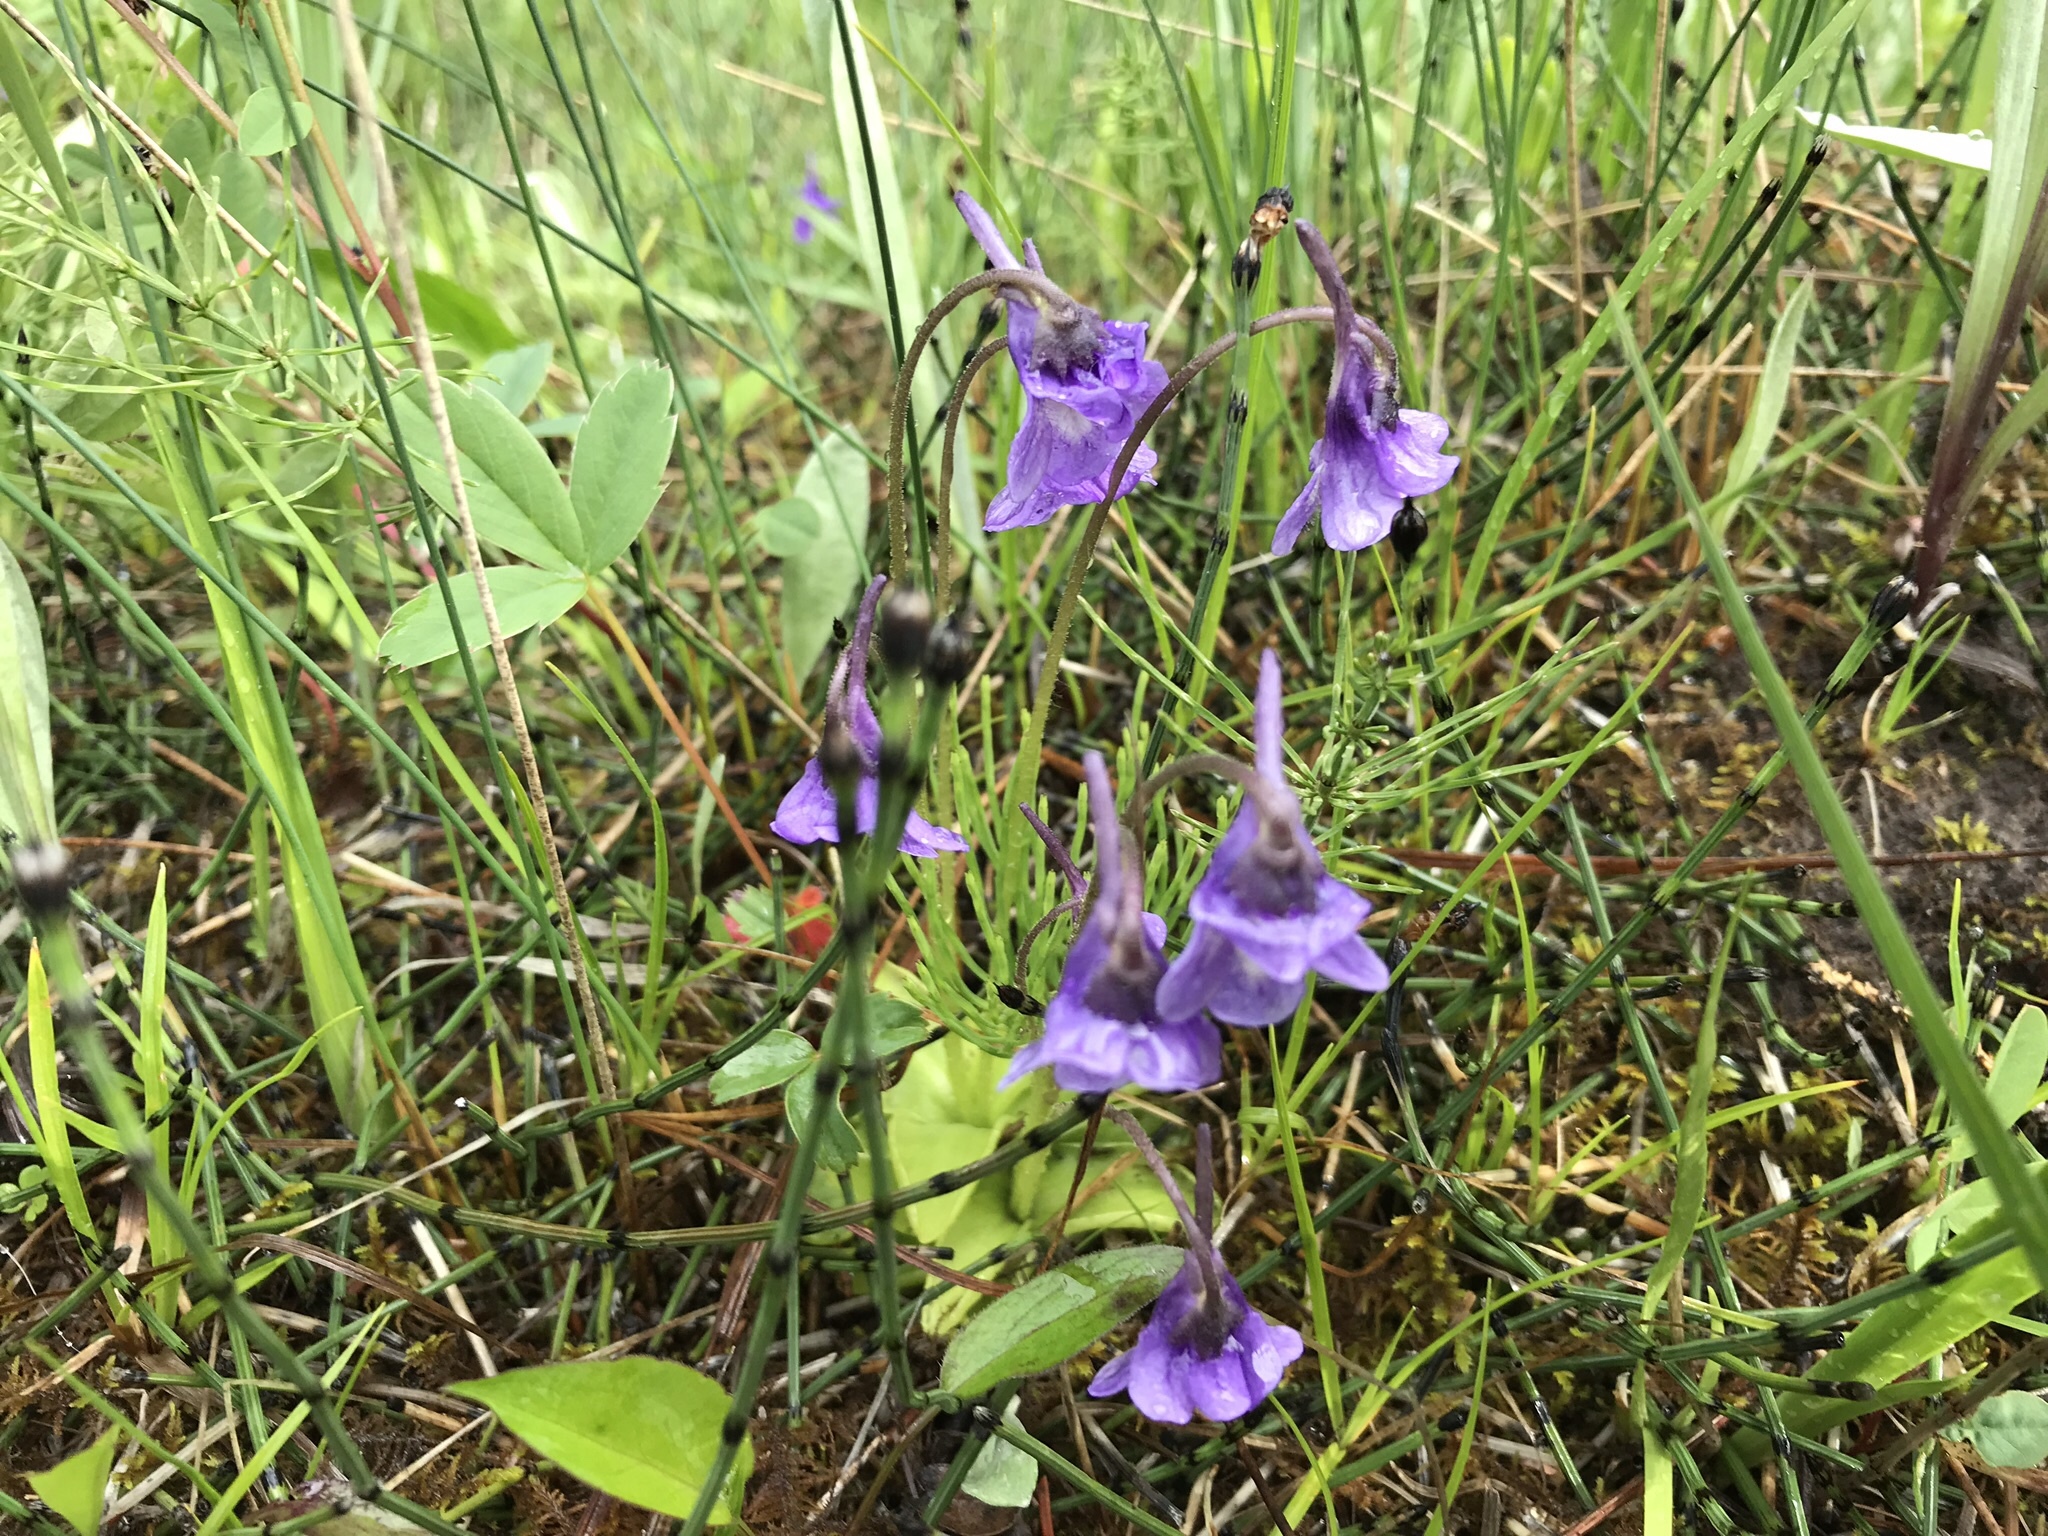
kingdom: Plantae
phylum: Tracheophyta
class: Magnoliopsida
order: Lamiales
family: Lentibulariaceae
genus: Pinguicula
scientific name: Pinguicula vulgaris
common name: Common butterwort
